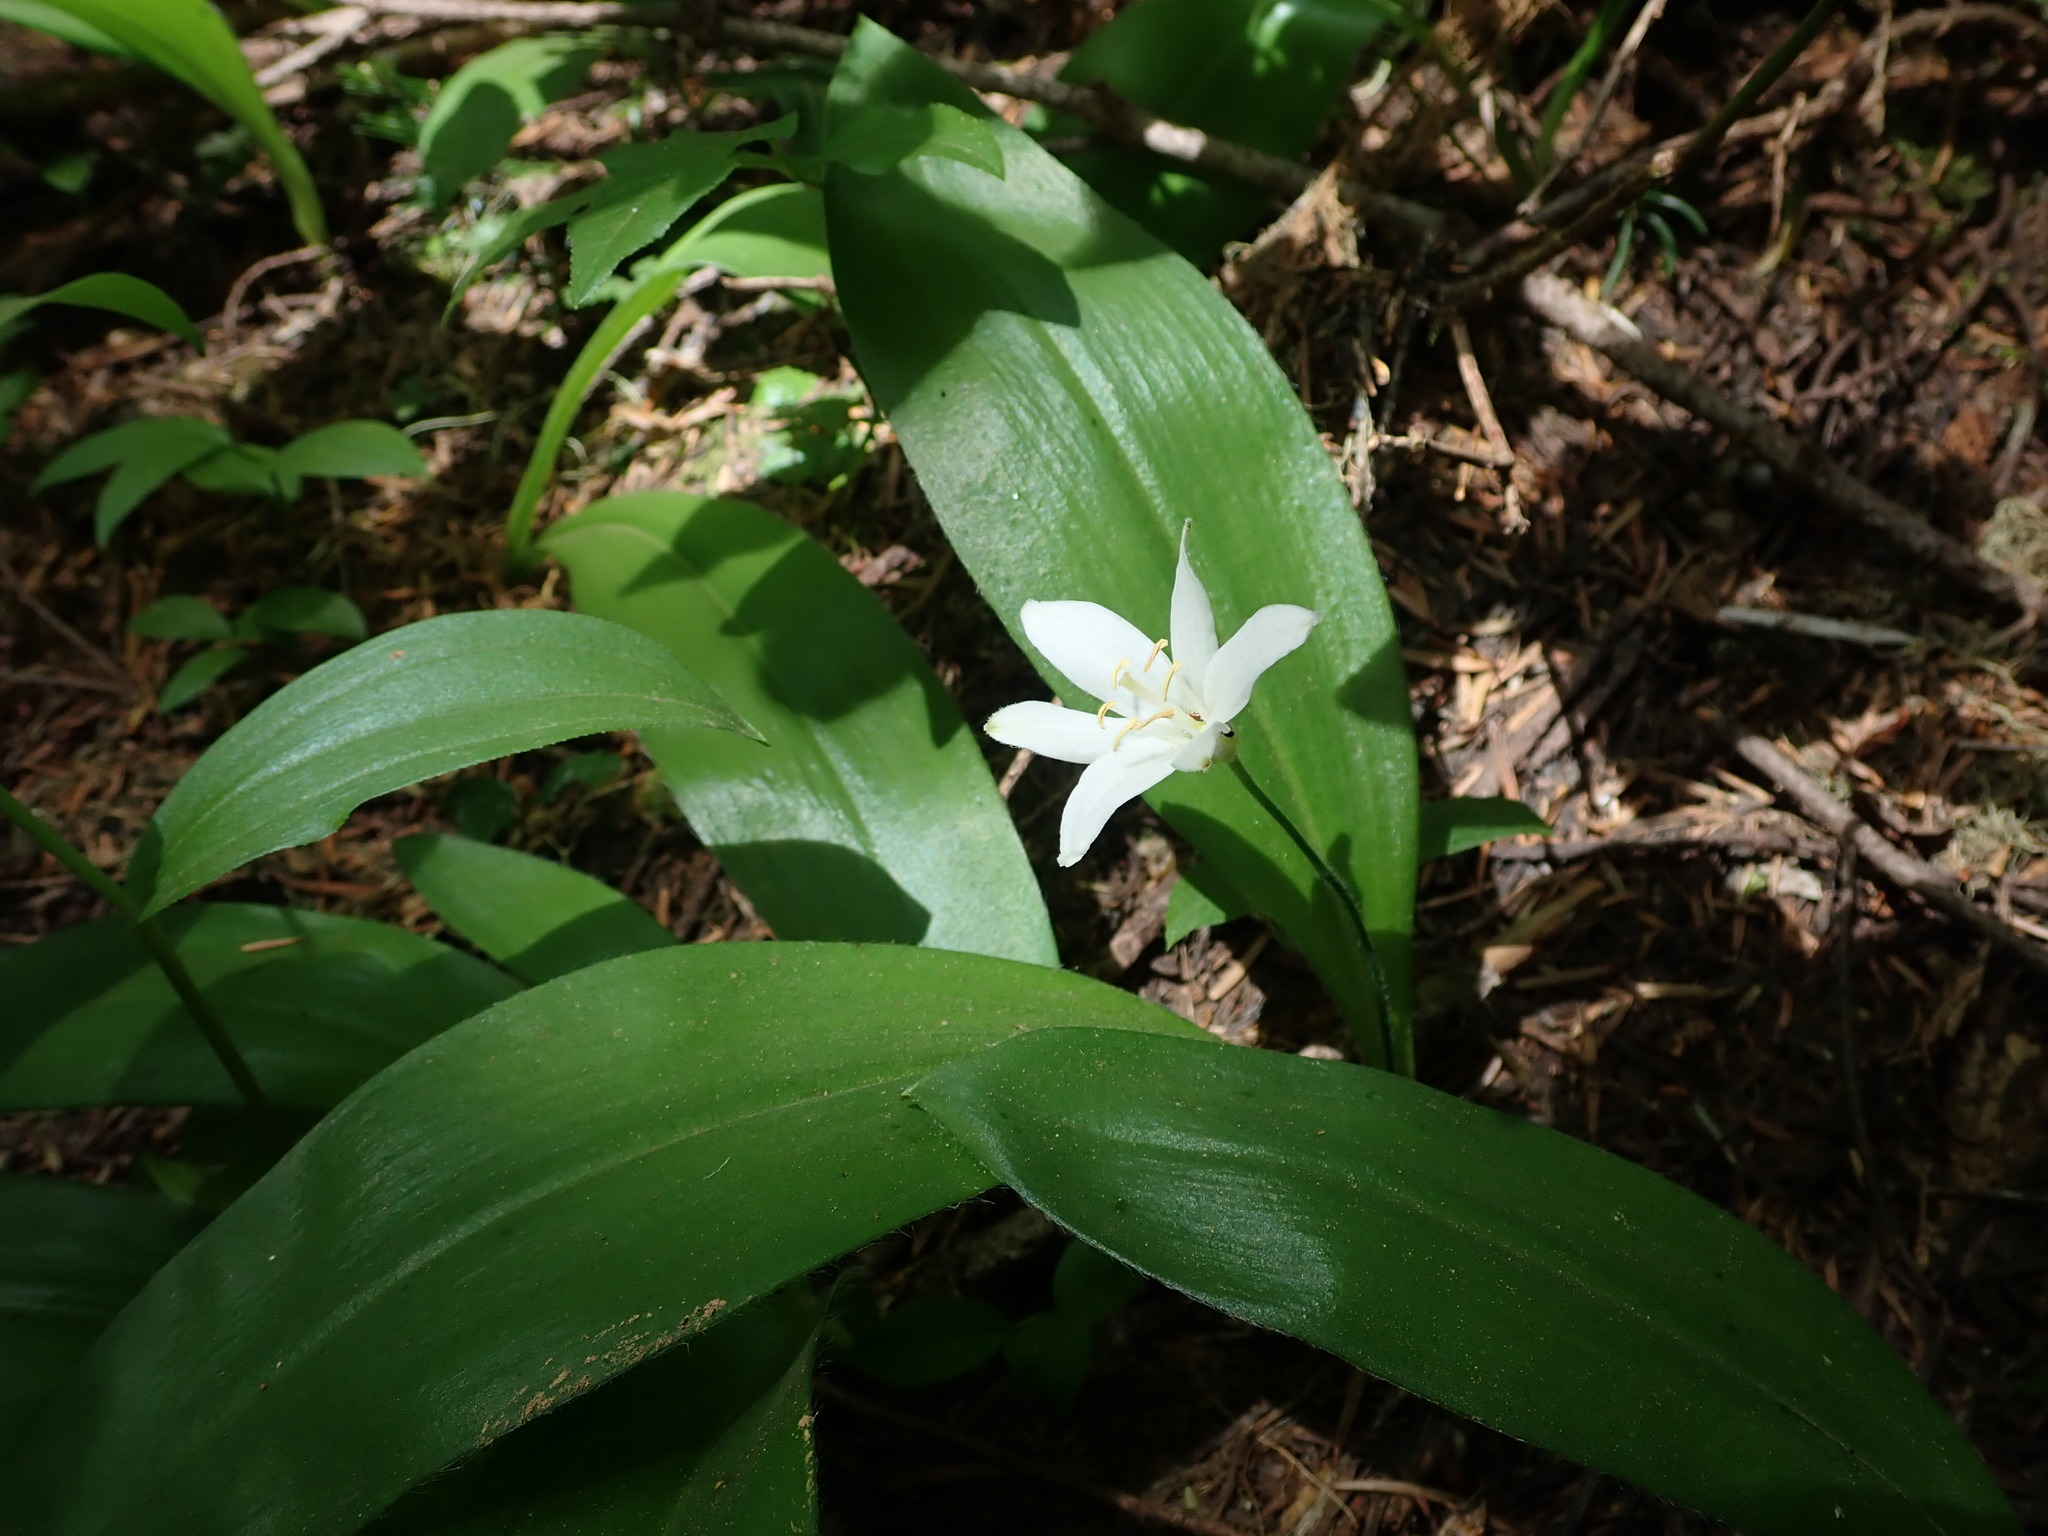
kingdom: Plantae
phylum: Tracheophyta
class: Liliopsida
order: Liliales
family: Liliaceae
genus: Clintonia
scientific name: Clintonia uniflora
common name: Queen's cup
